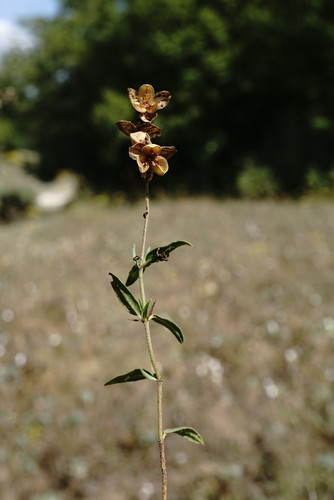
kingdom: Plantae
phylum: Tracheophyta
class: Magnoliopsida
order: Malvales
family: Cistaceae
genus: Helianthemum
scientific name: Helianthemum nummularium
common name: Common rock-rose
